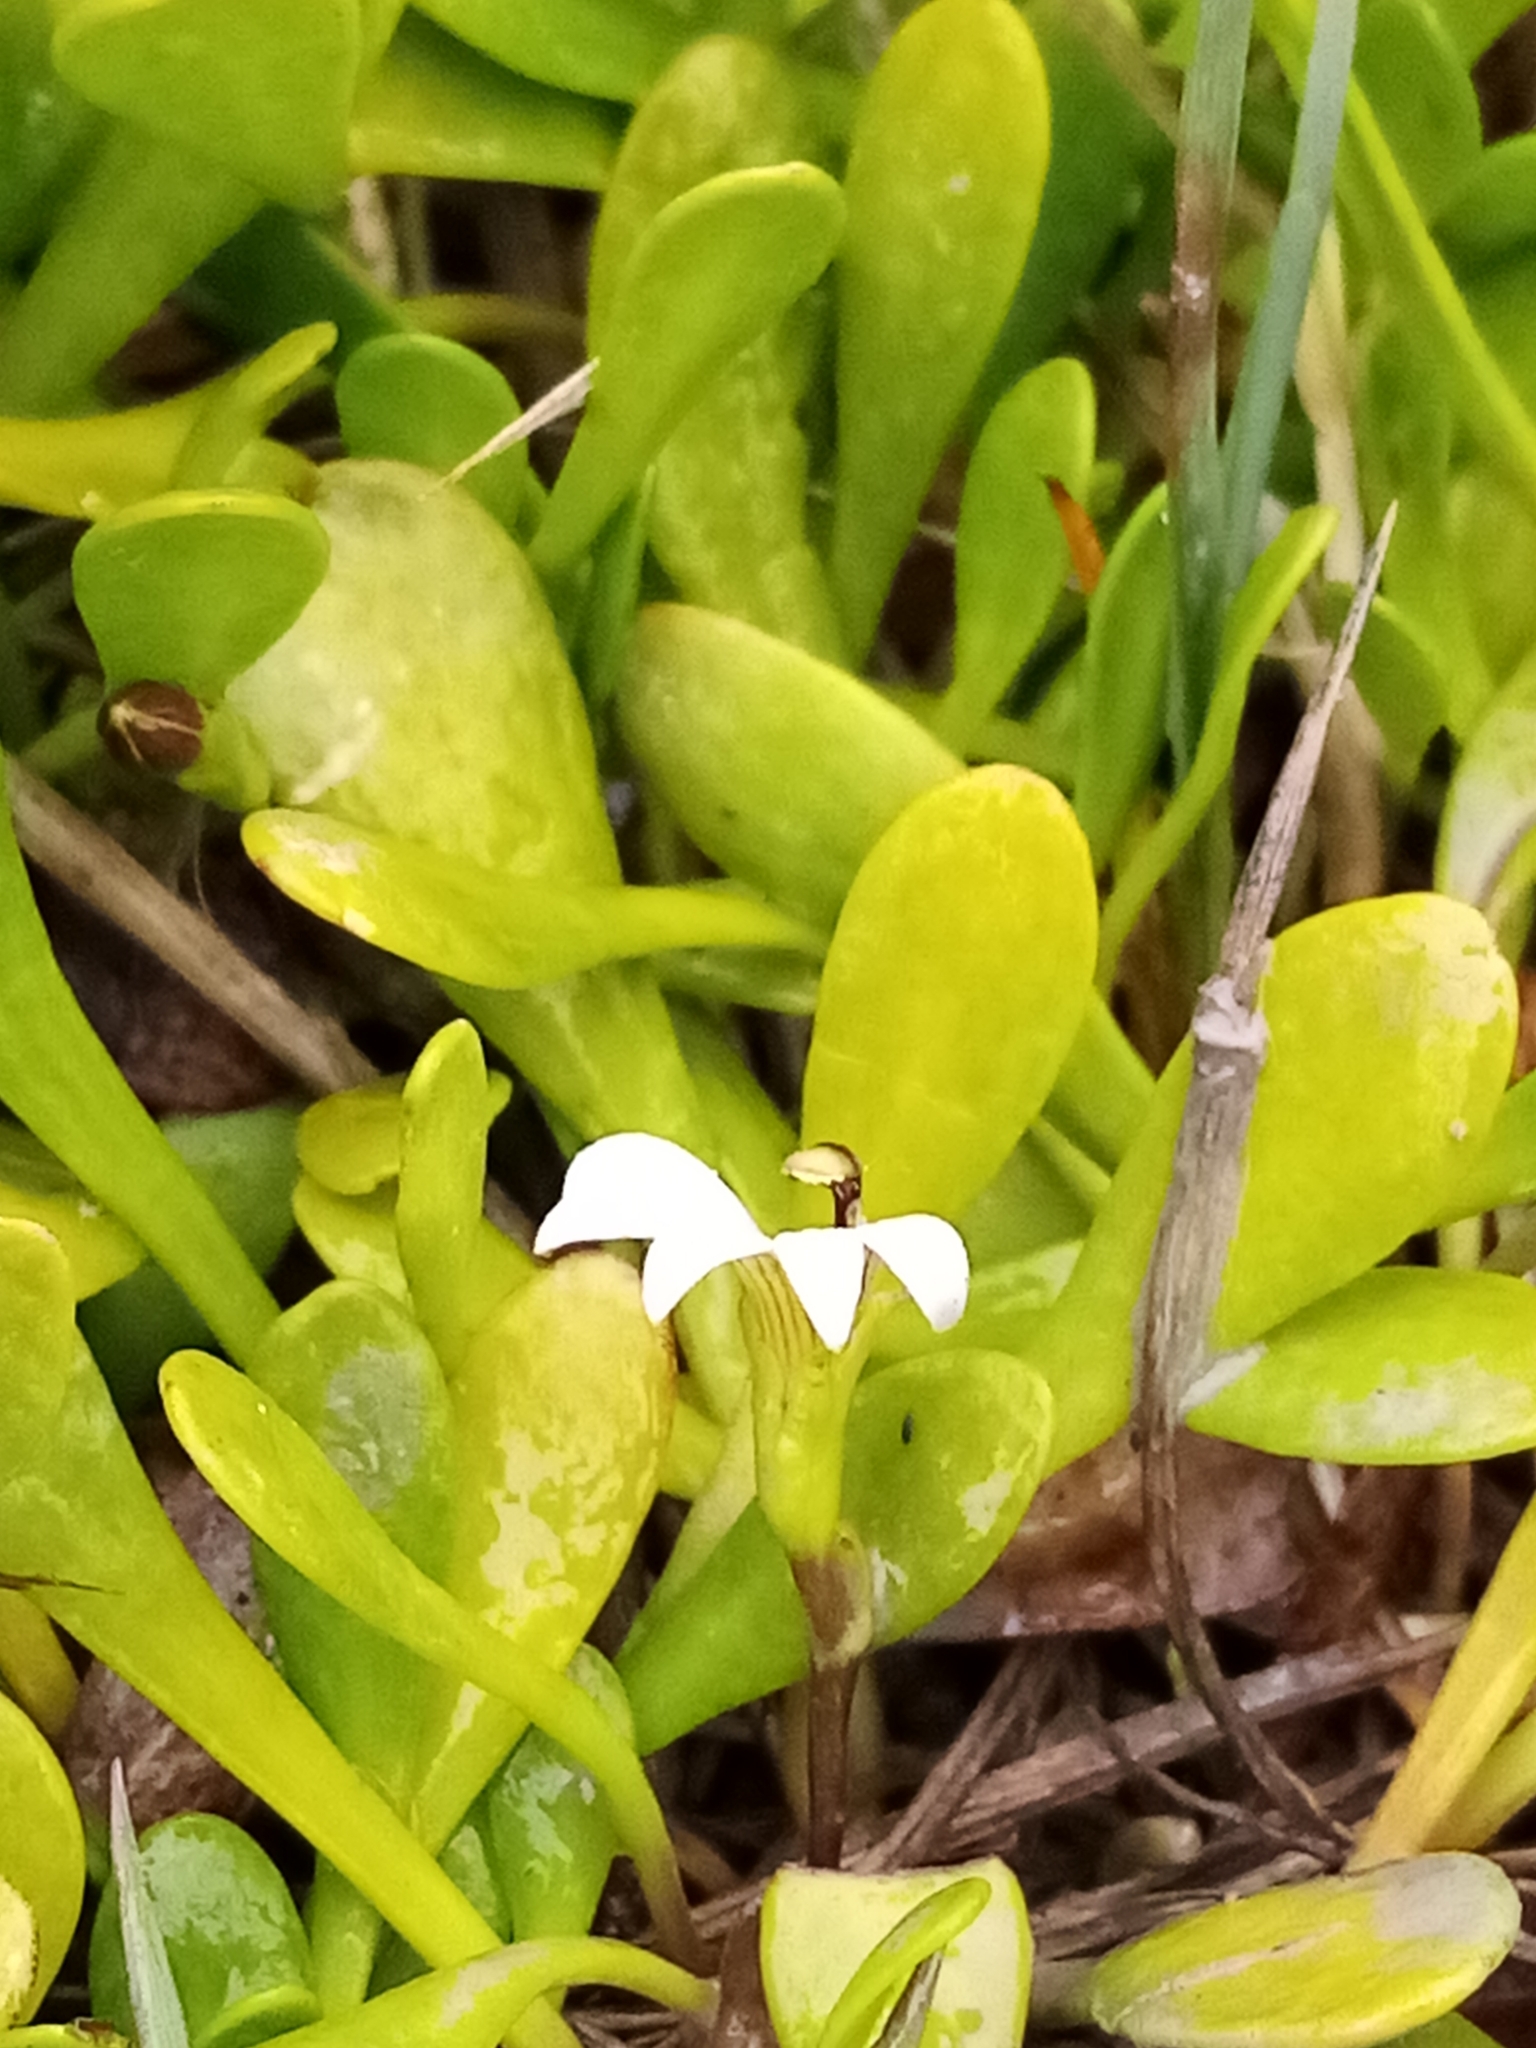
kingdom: Plantae
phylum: Tracheophyta
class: Magnoliopsida
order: Asterales
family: Goodeniaceae
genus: Goodenia
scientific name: Goodenia radicans
